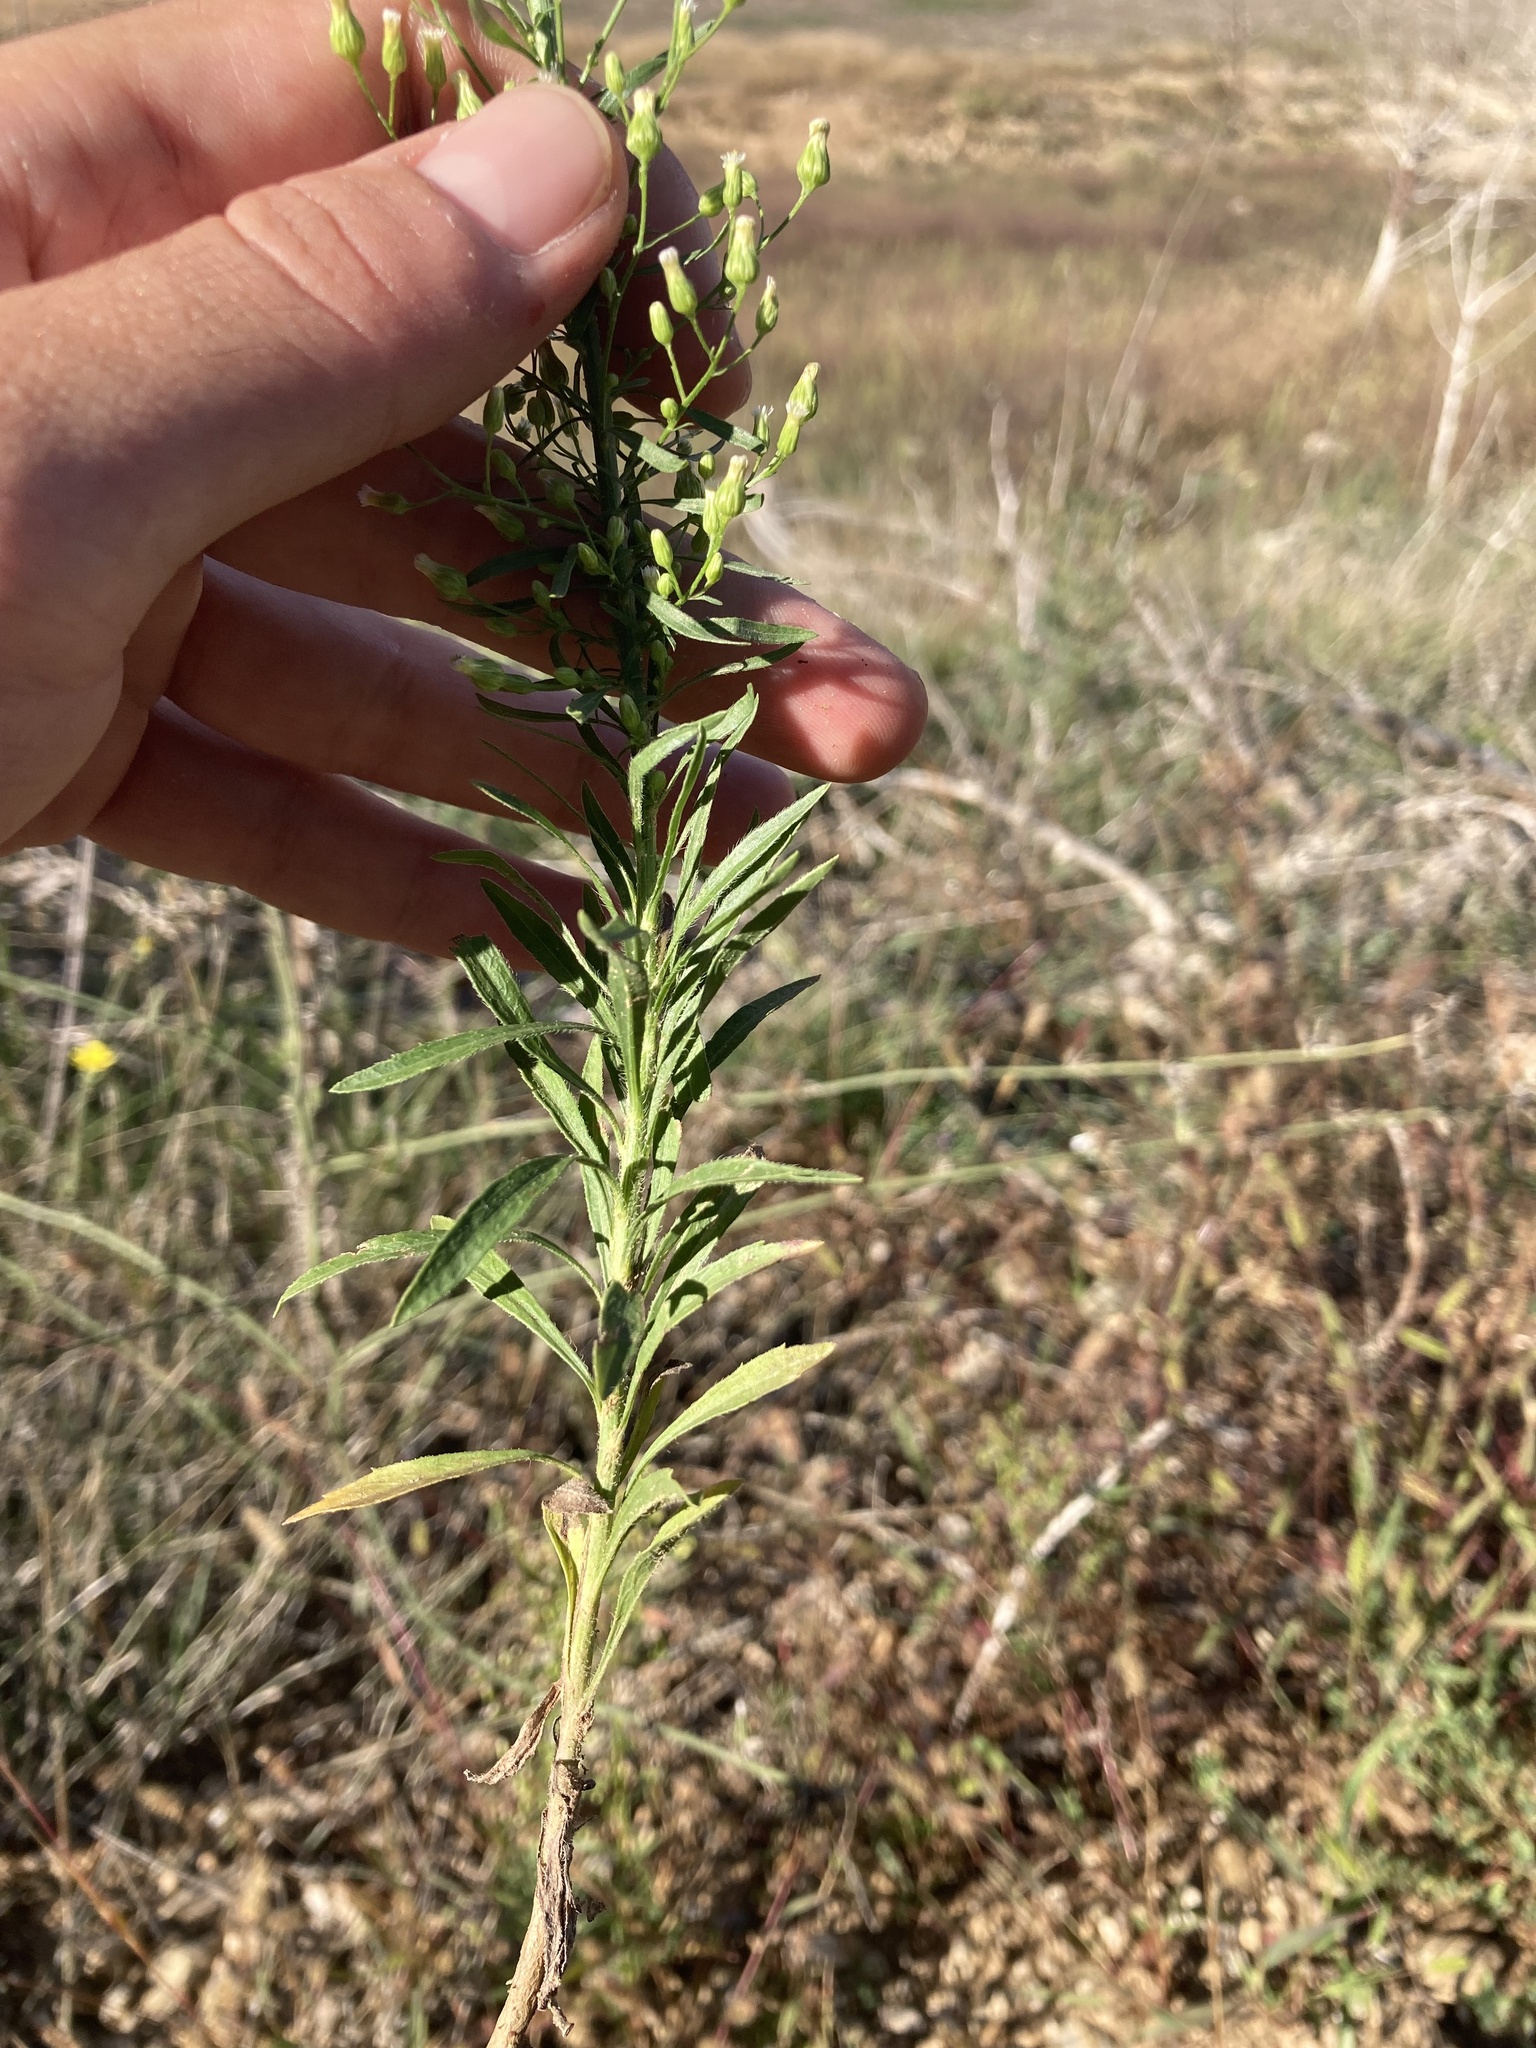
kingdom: Plantae
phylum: Tracheophyta
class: Magnoliopsida
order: Asterales
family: Asteraceae
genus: Erigeron
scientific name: Erigeron canadensis
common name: Canadian fleabane
